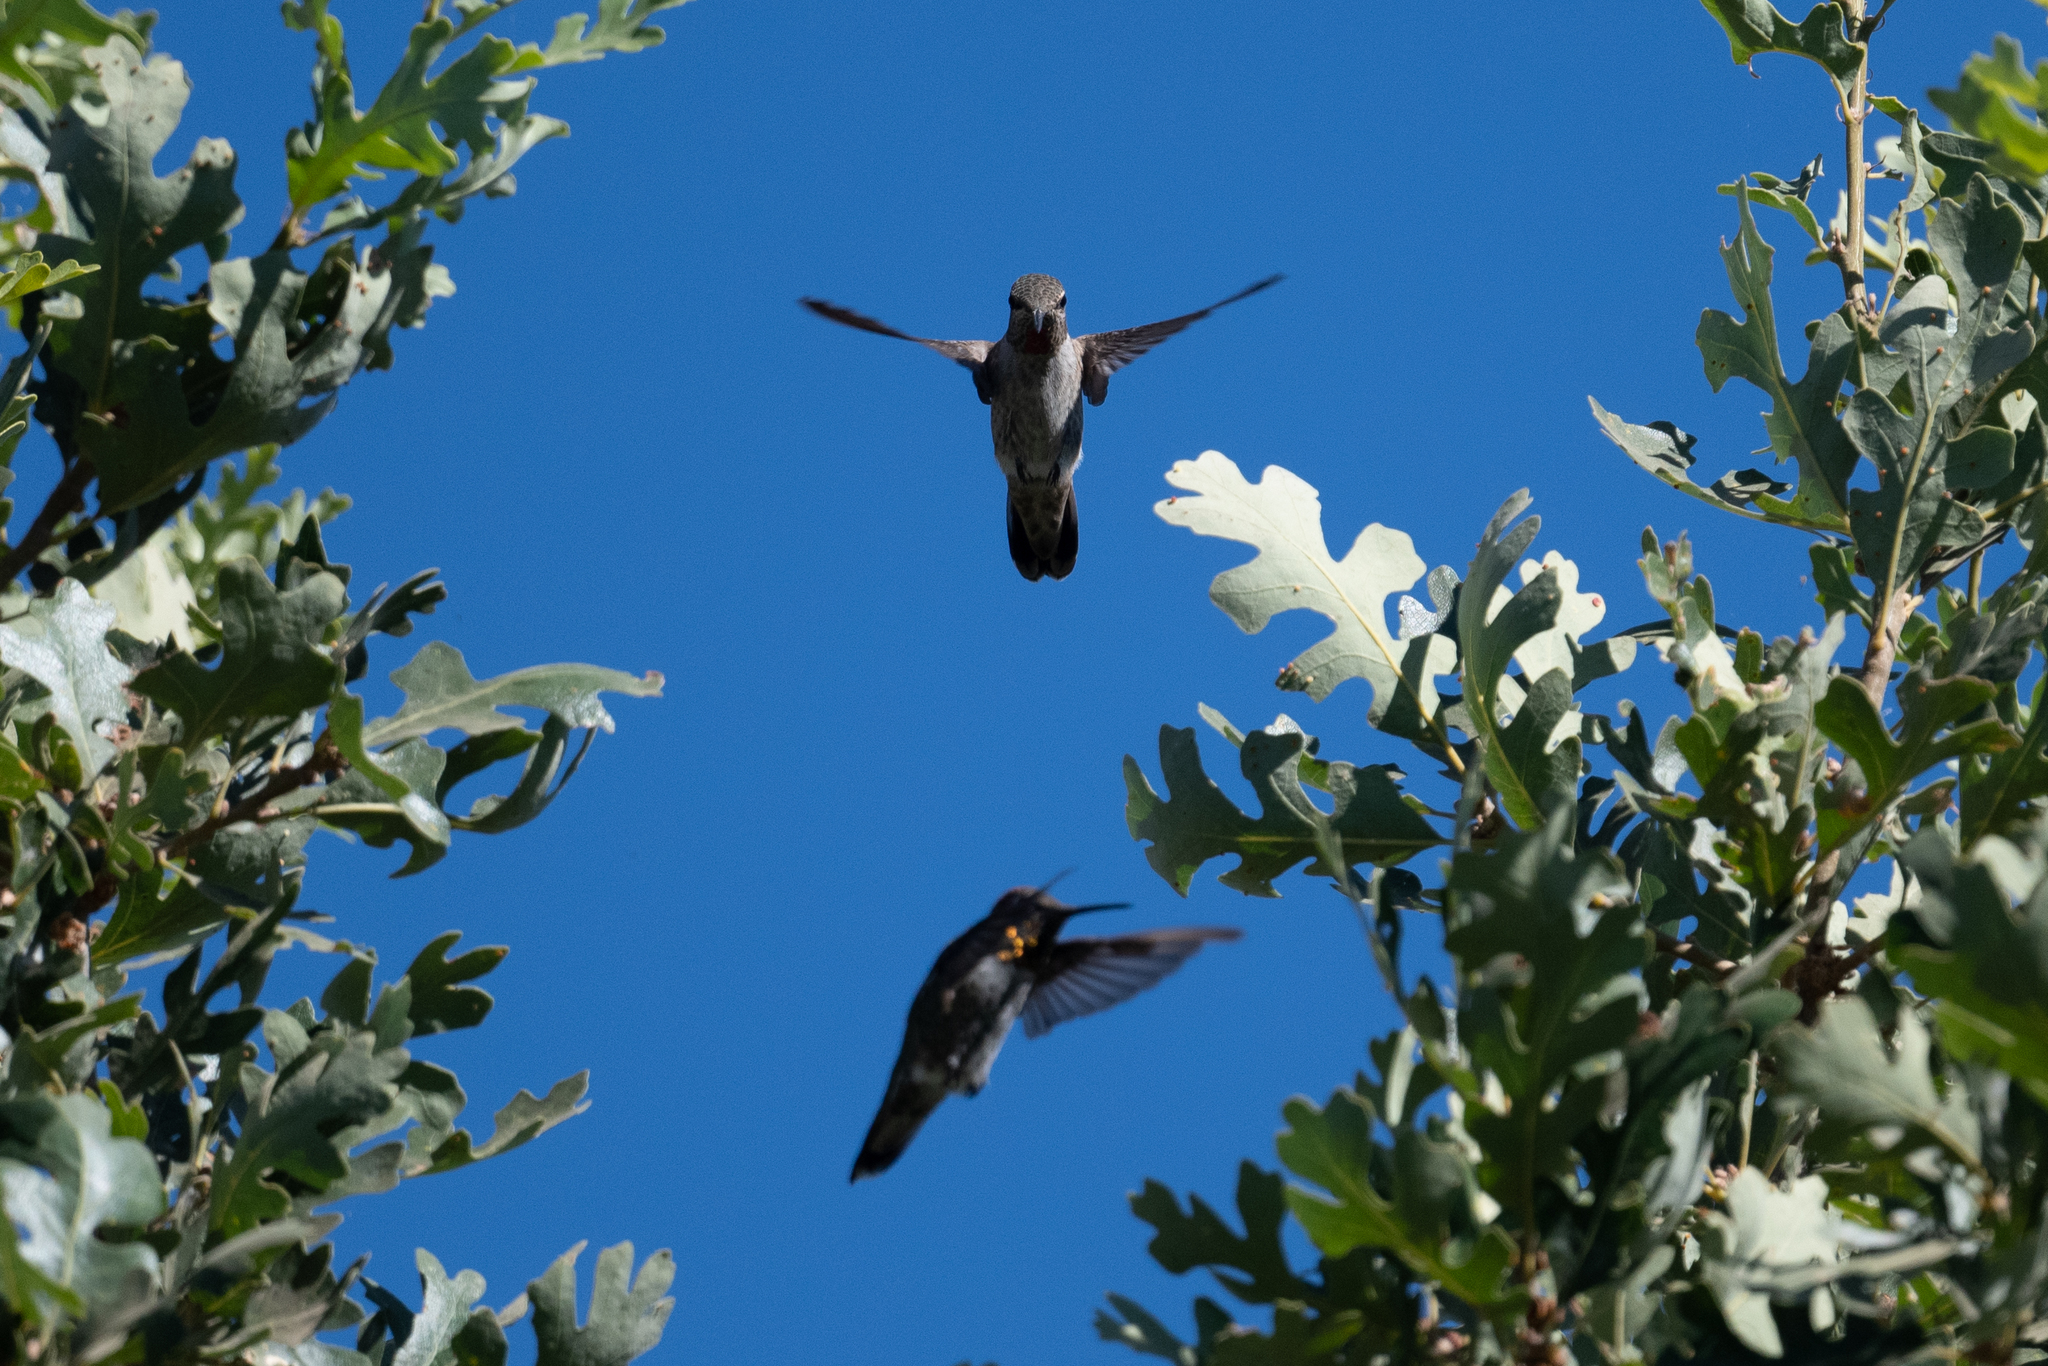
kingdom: Animalia
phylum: Chordata
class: Aves
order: Apodiformes
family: Trochilidae
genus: Calypte
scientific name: Calypte anna
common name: Anna's hummingbird
